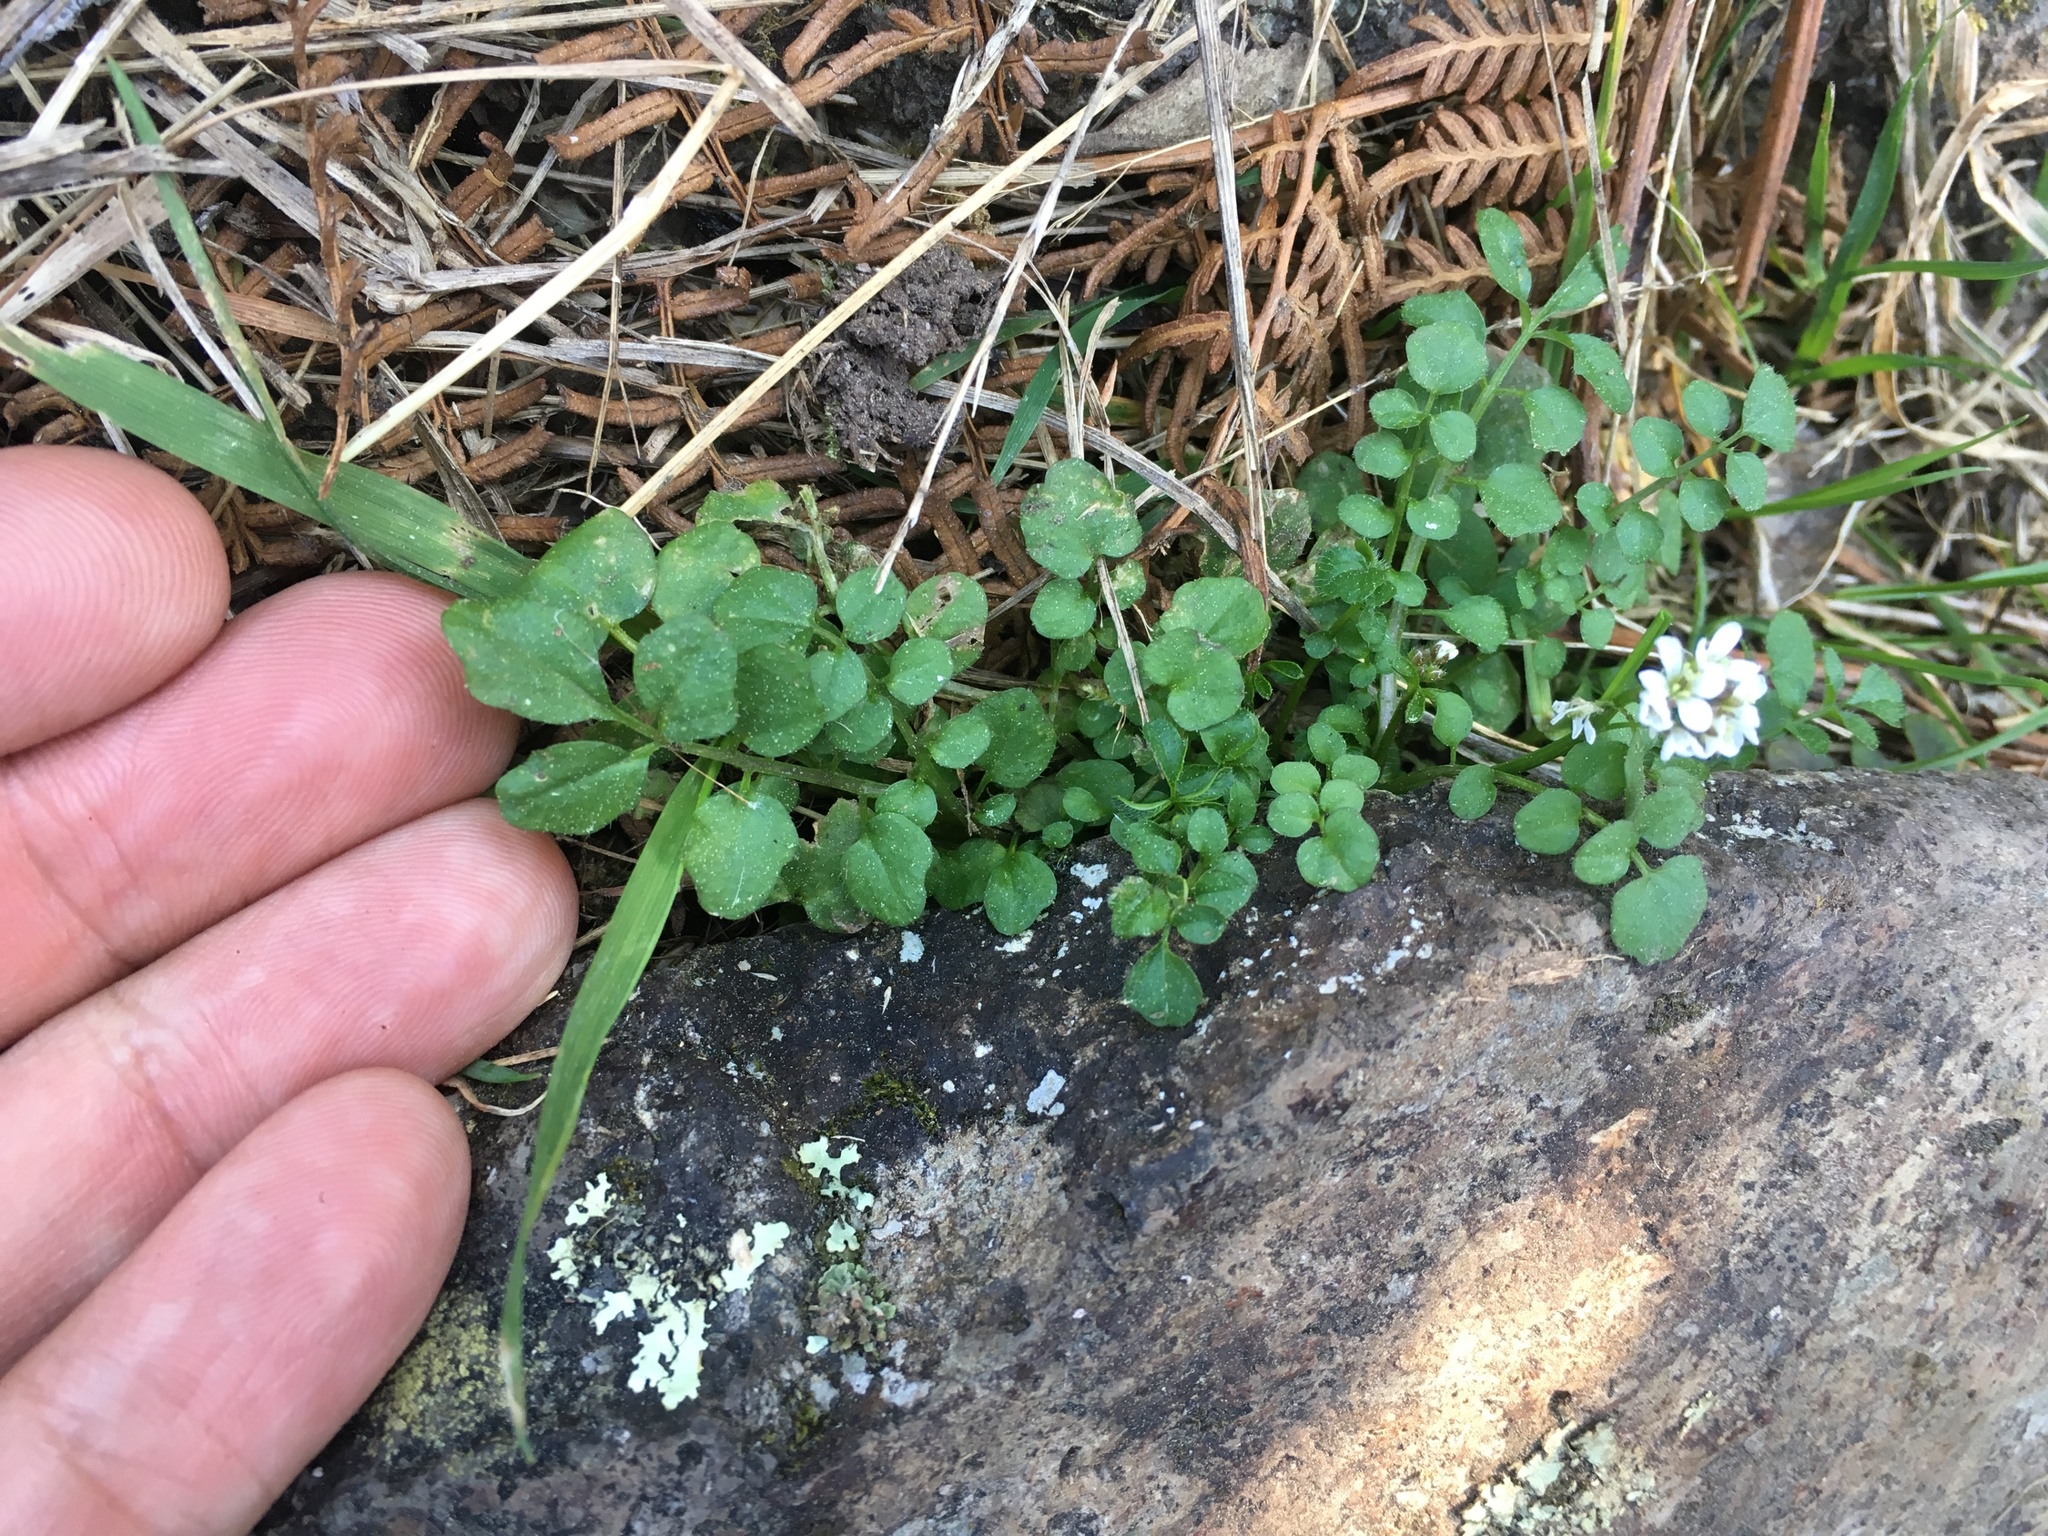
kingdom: Plantae
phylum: Tracheophyta
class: Magnoliopsida
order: Brassicales
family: Brassicaceae
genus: Cardamine
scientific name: Cardamine hirsuta
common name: Hairy bittercress
